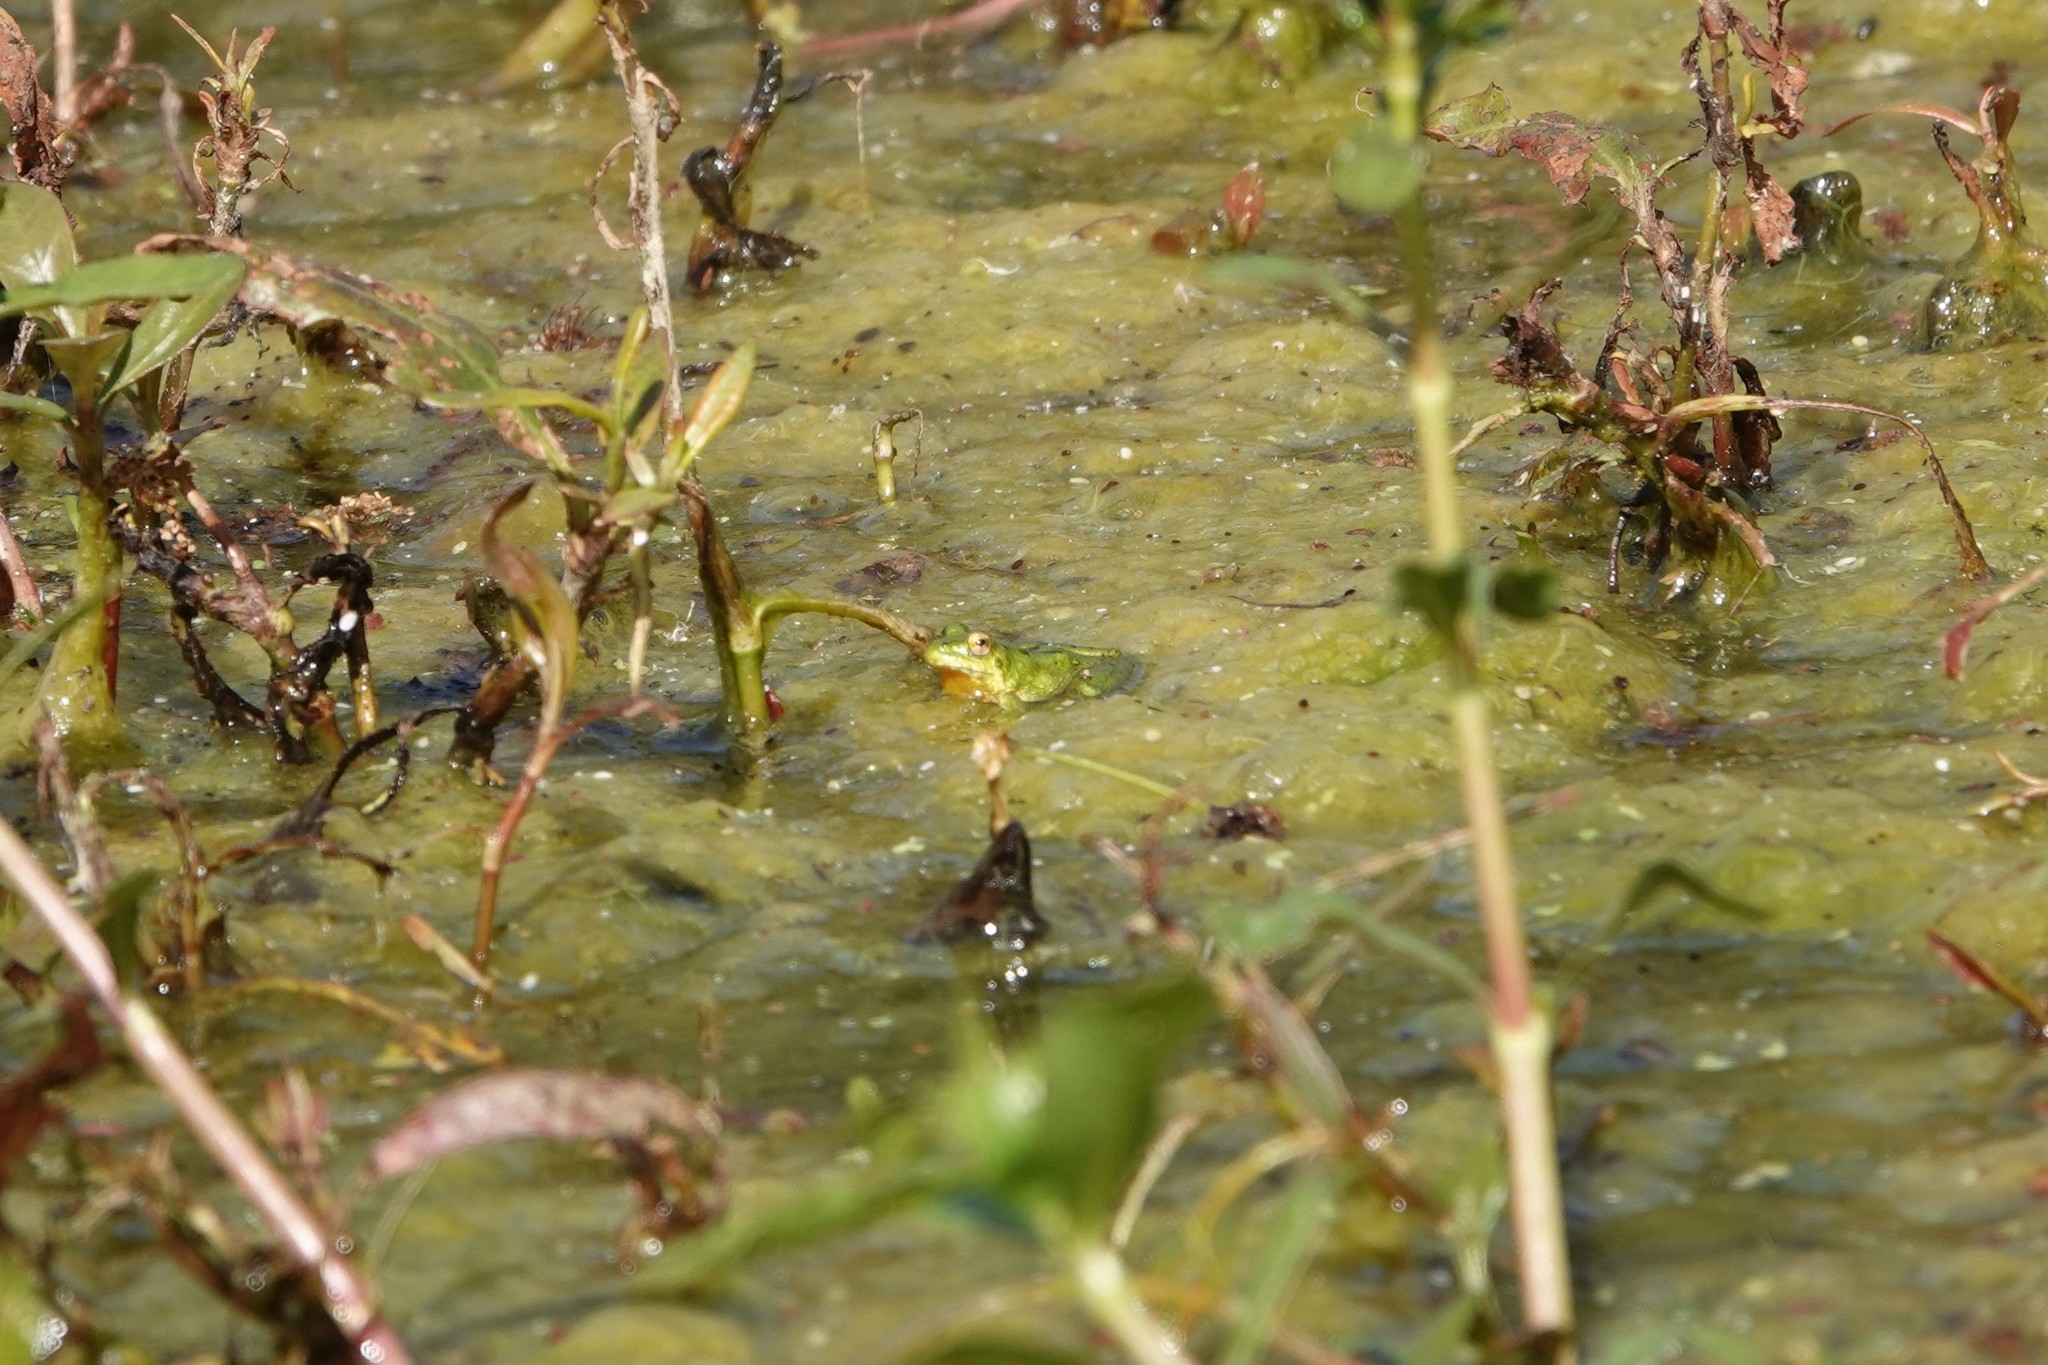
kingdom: Animalia
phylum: Chordata
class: Amphibia
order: Anura
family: Ranidae
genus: Lithobates
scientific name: Lithobates catesbeianus
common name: American bullfrog
